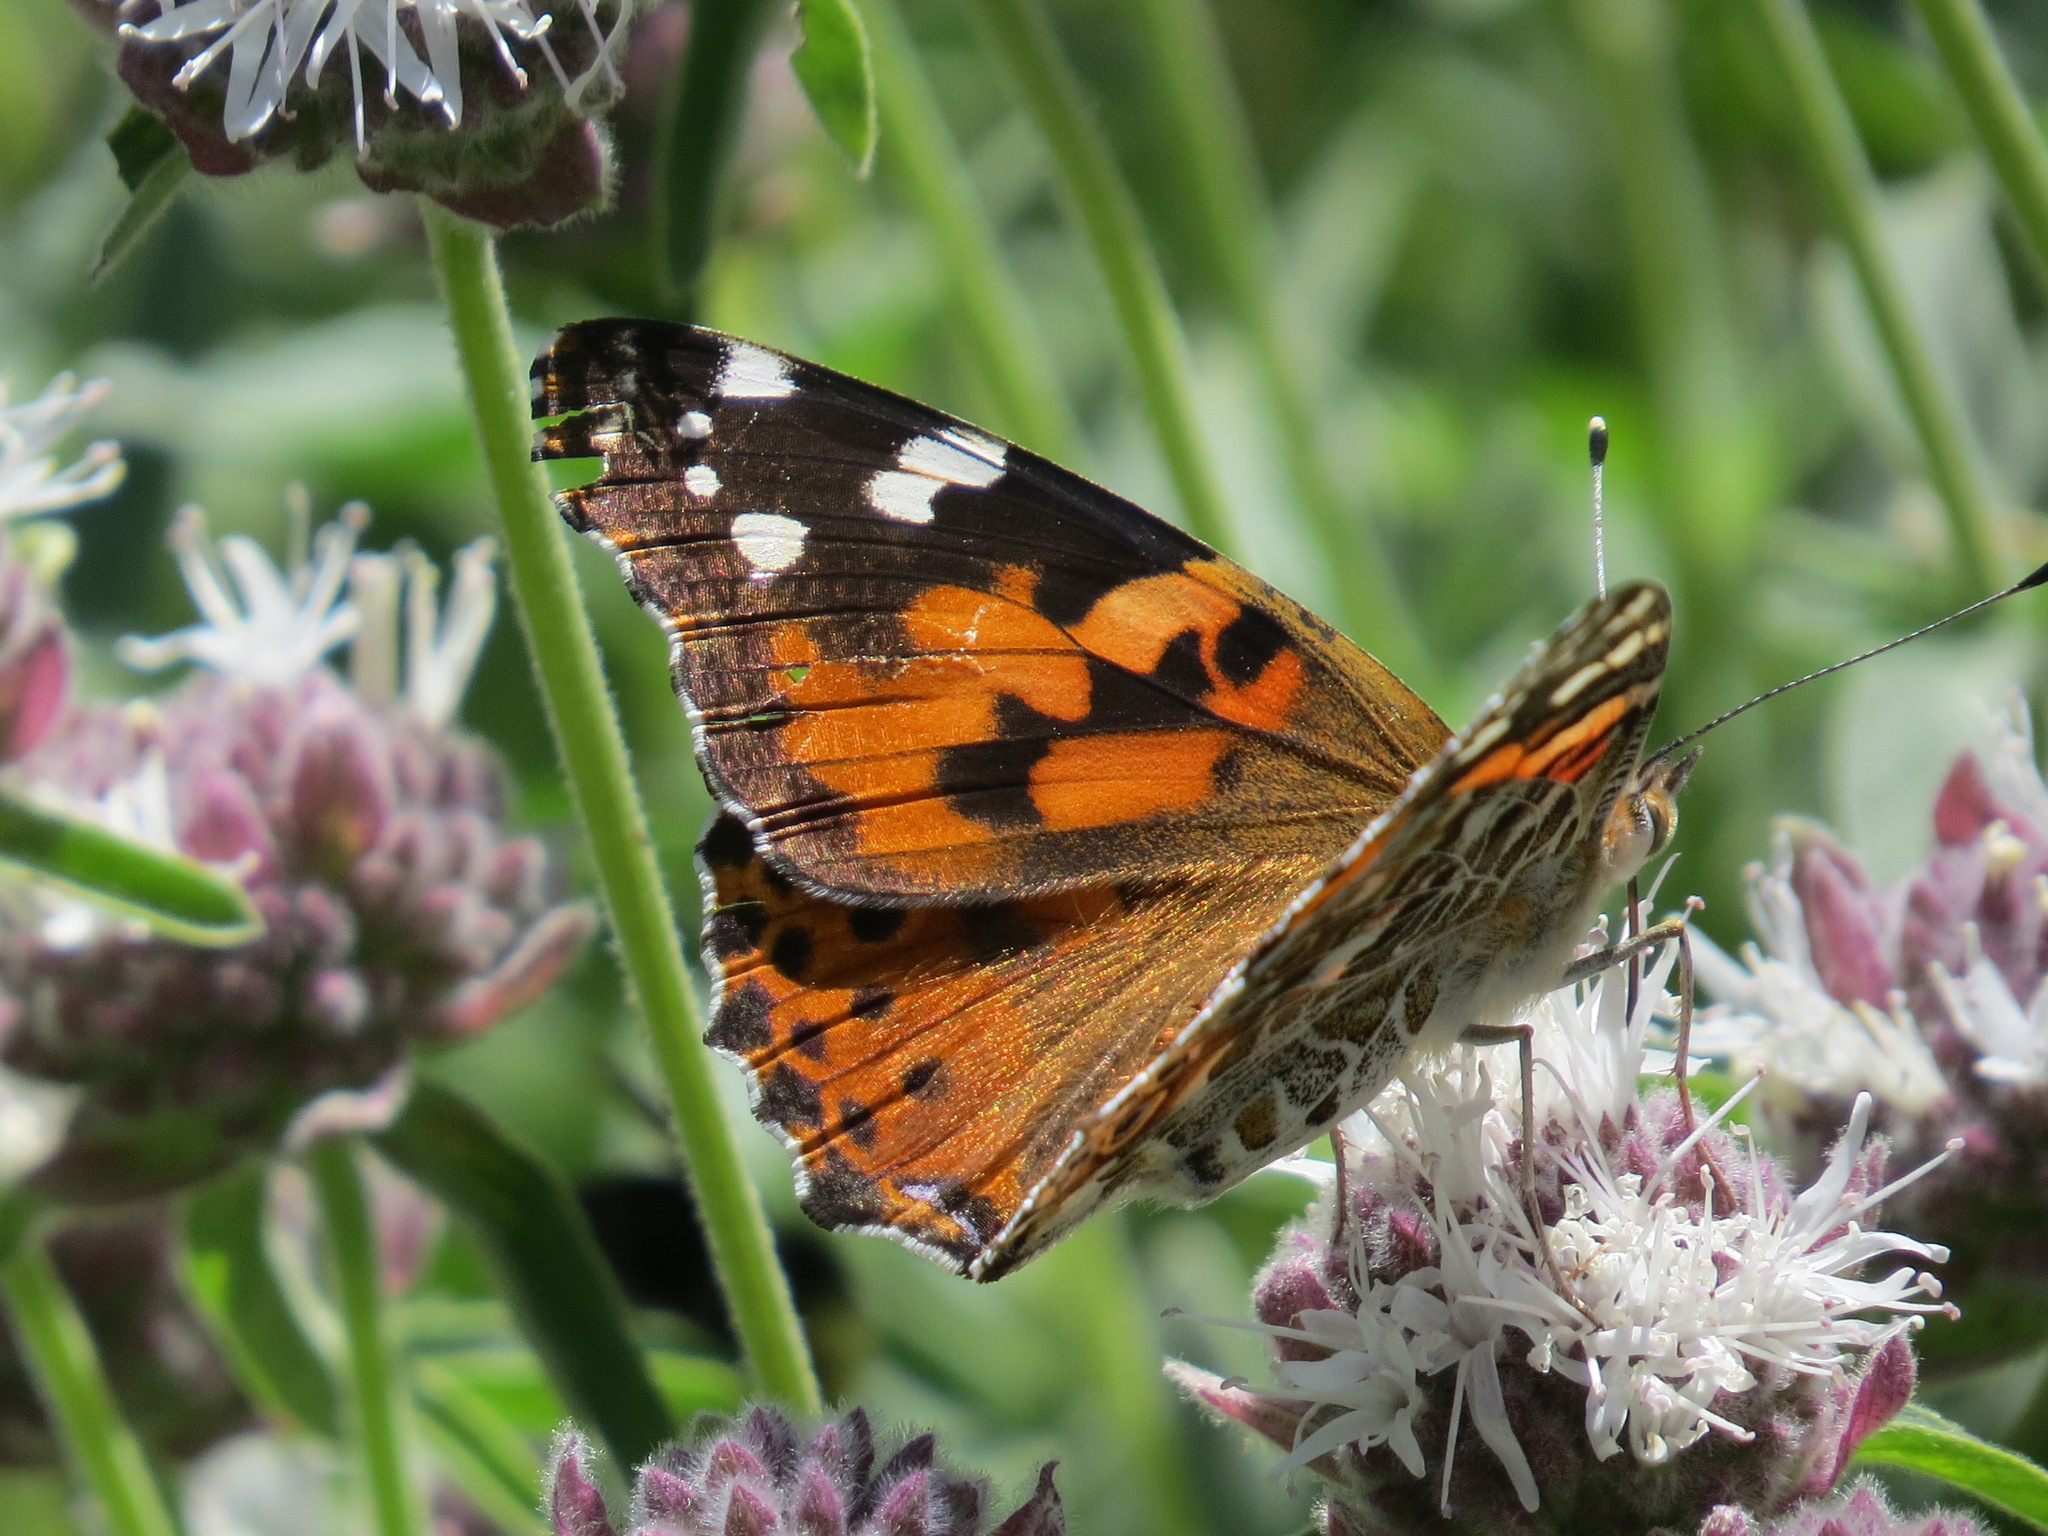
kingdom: Animalia
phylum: Arthropoda
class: Insecta
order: Lepidoptera
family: Nymphalidae
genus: Vanessa
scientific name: Vanessa cardui
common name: Painted lady
